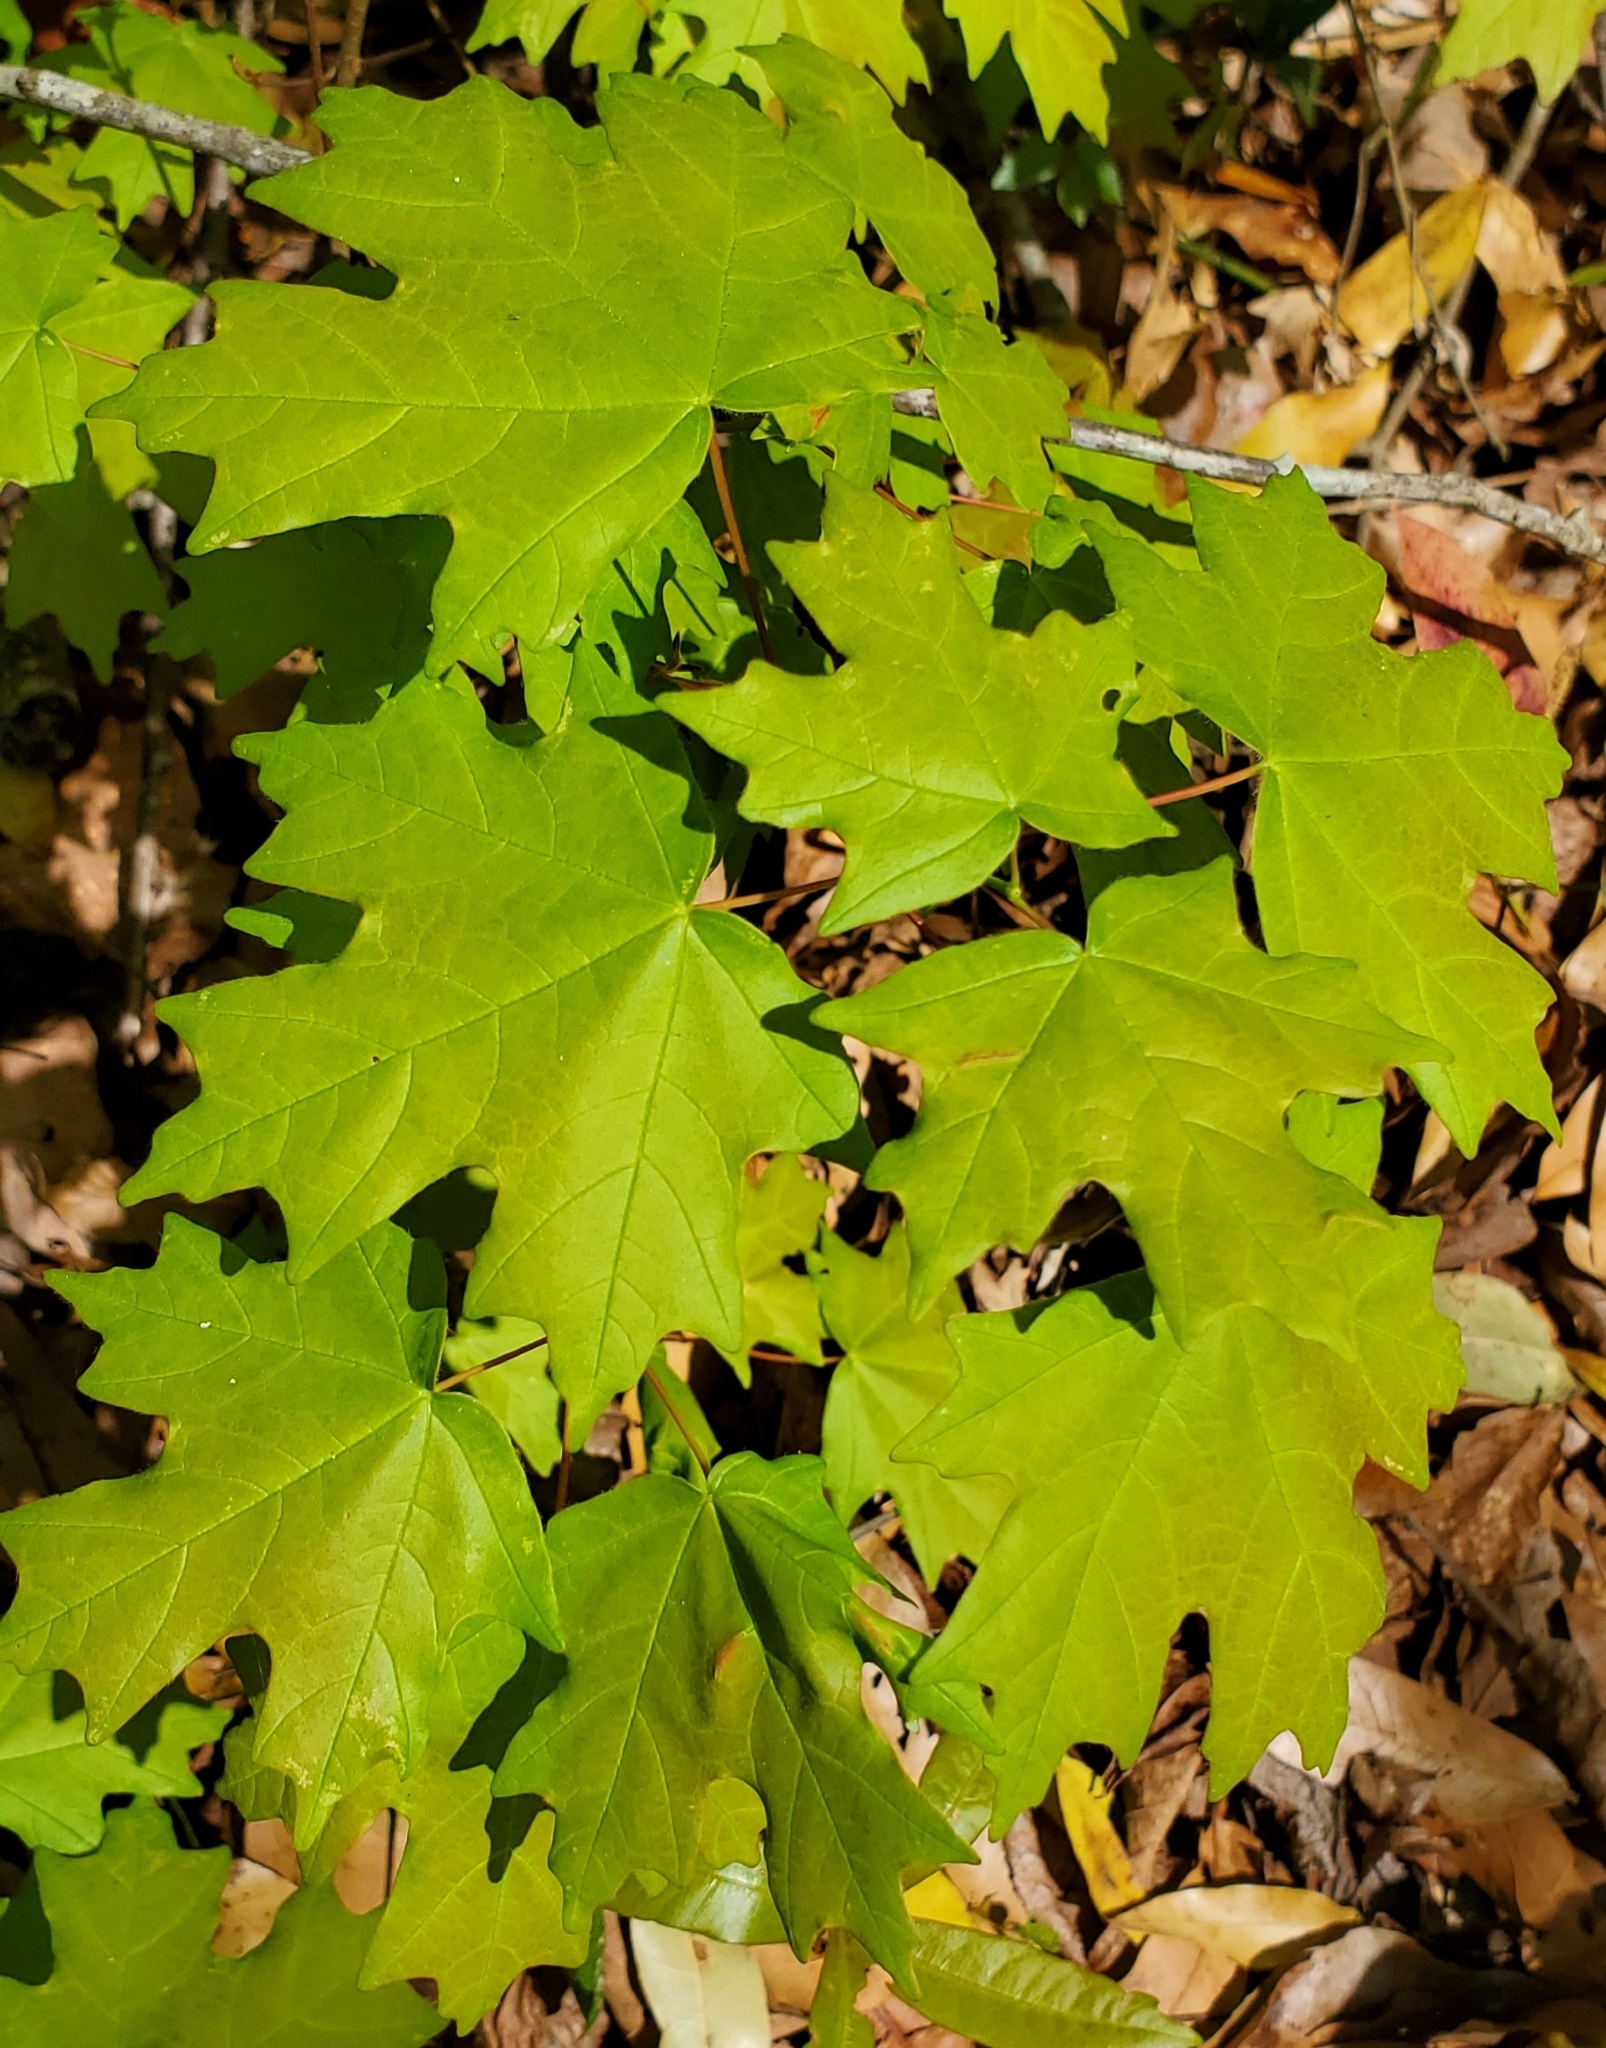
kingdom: Plantae
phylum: Tracheophyta
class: Magnoliopsida
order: Sapindales
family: Sapindaceae
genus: Acer
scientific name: Acer floridanum
